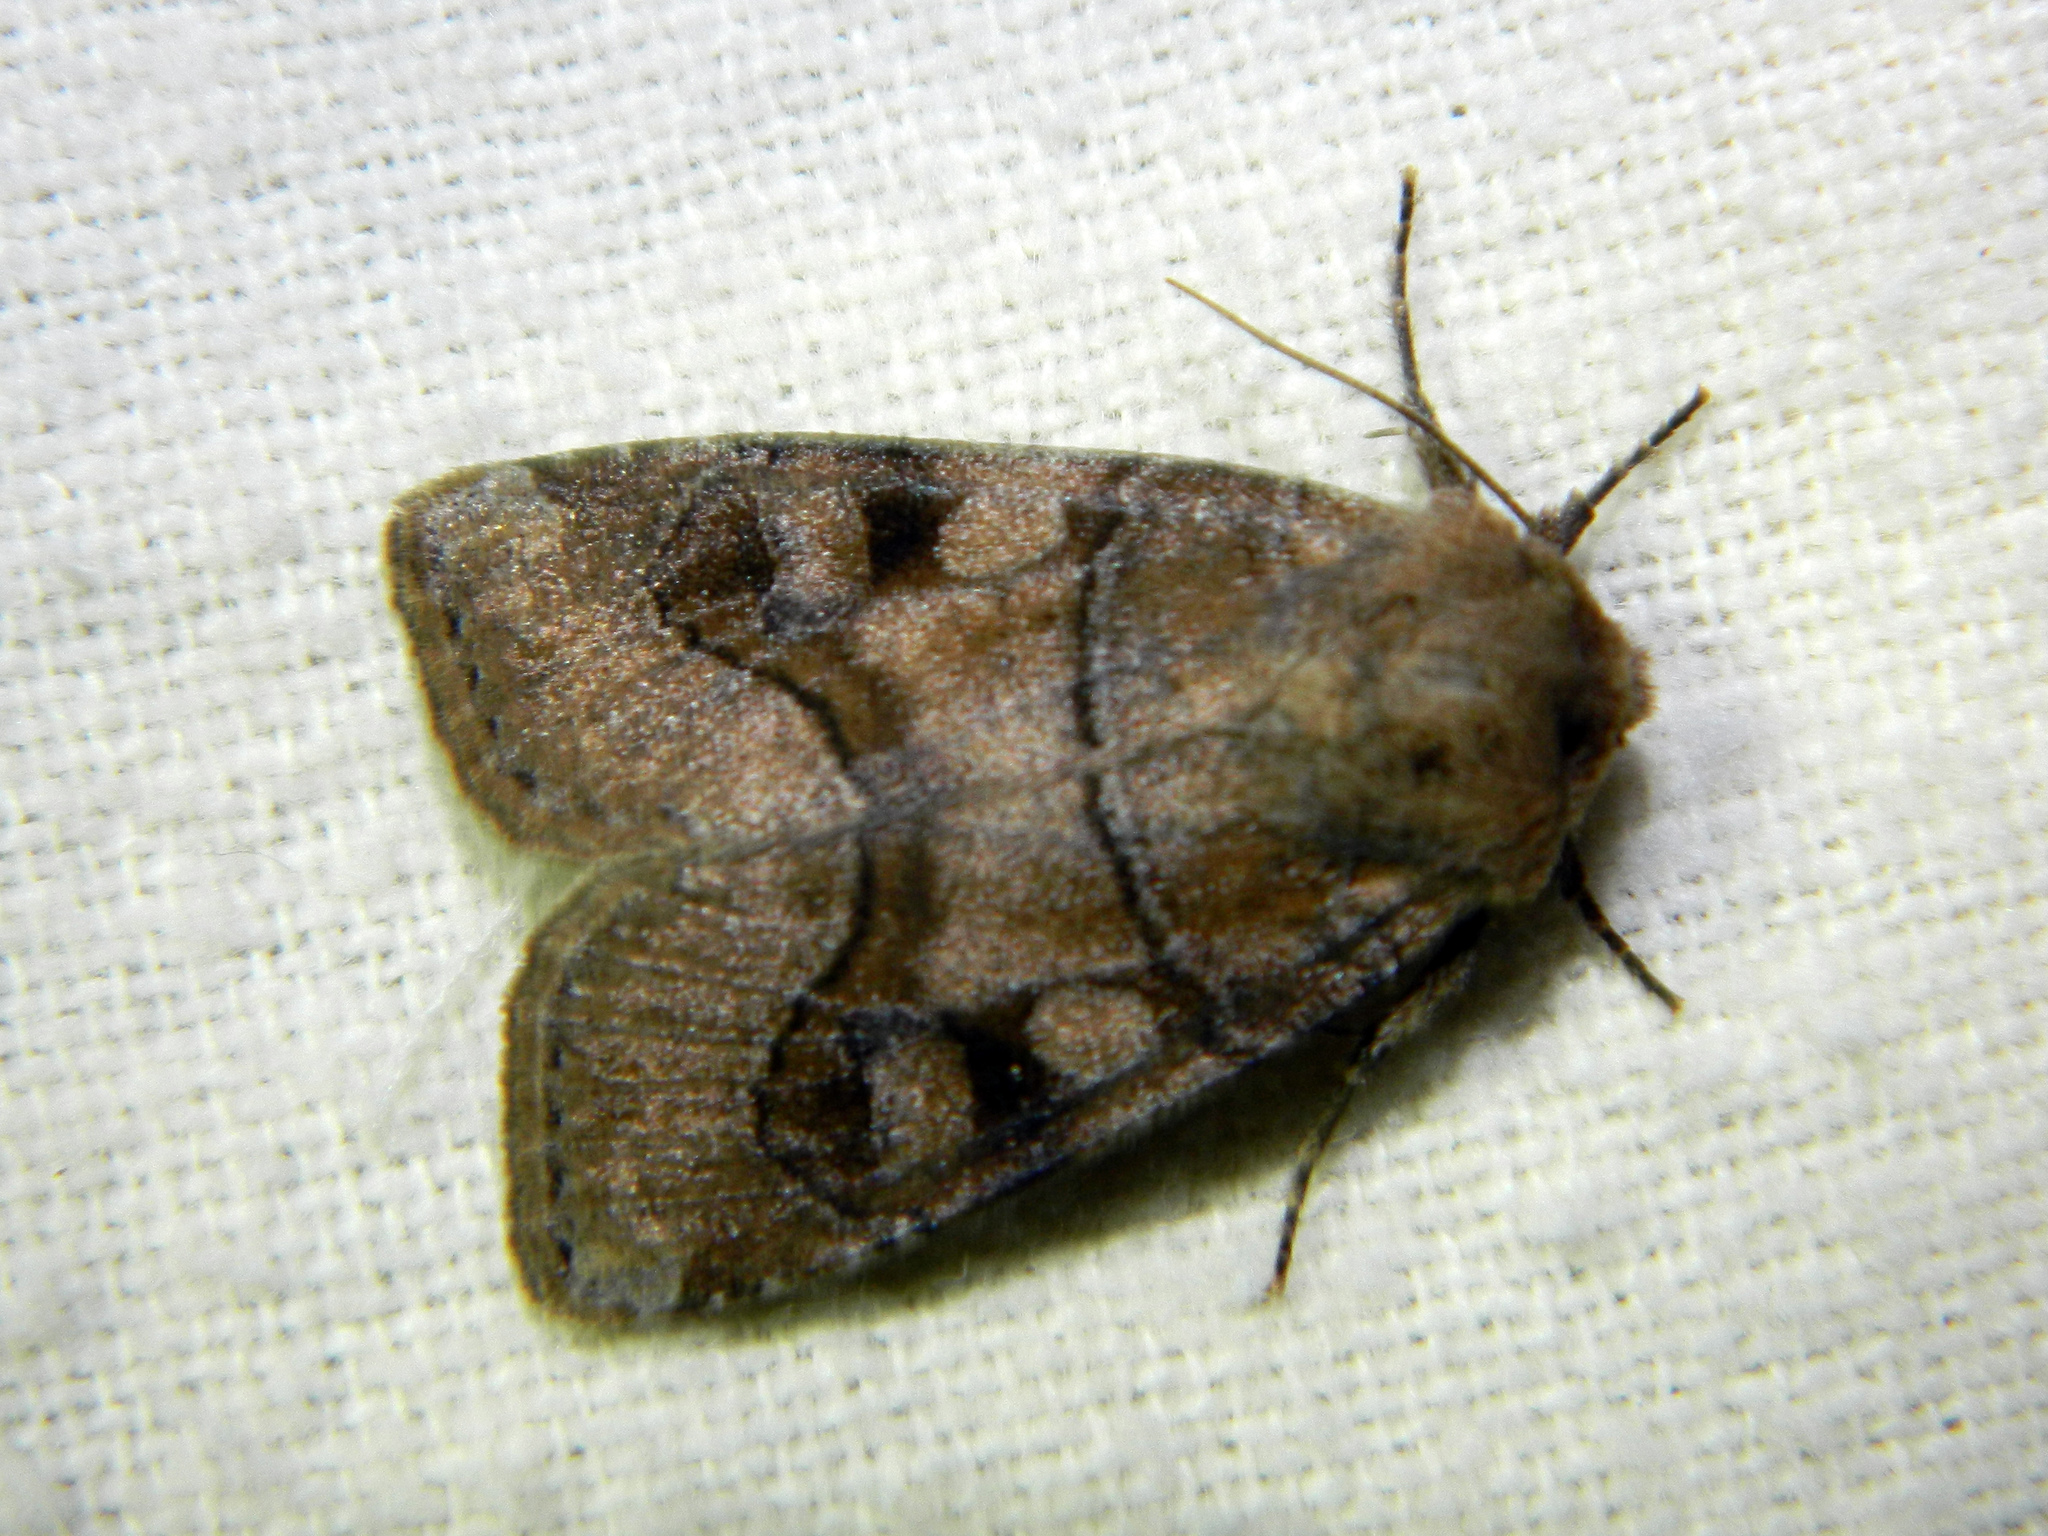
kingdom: Animalia
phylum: Arthropoda
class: Insecta
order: Lepidoptera
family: Noctuidae
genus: Crocigrapha
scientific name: Crocigrapha normani
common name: Norman's quaker
